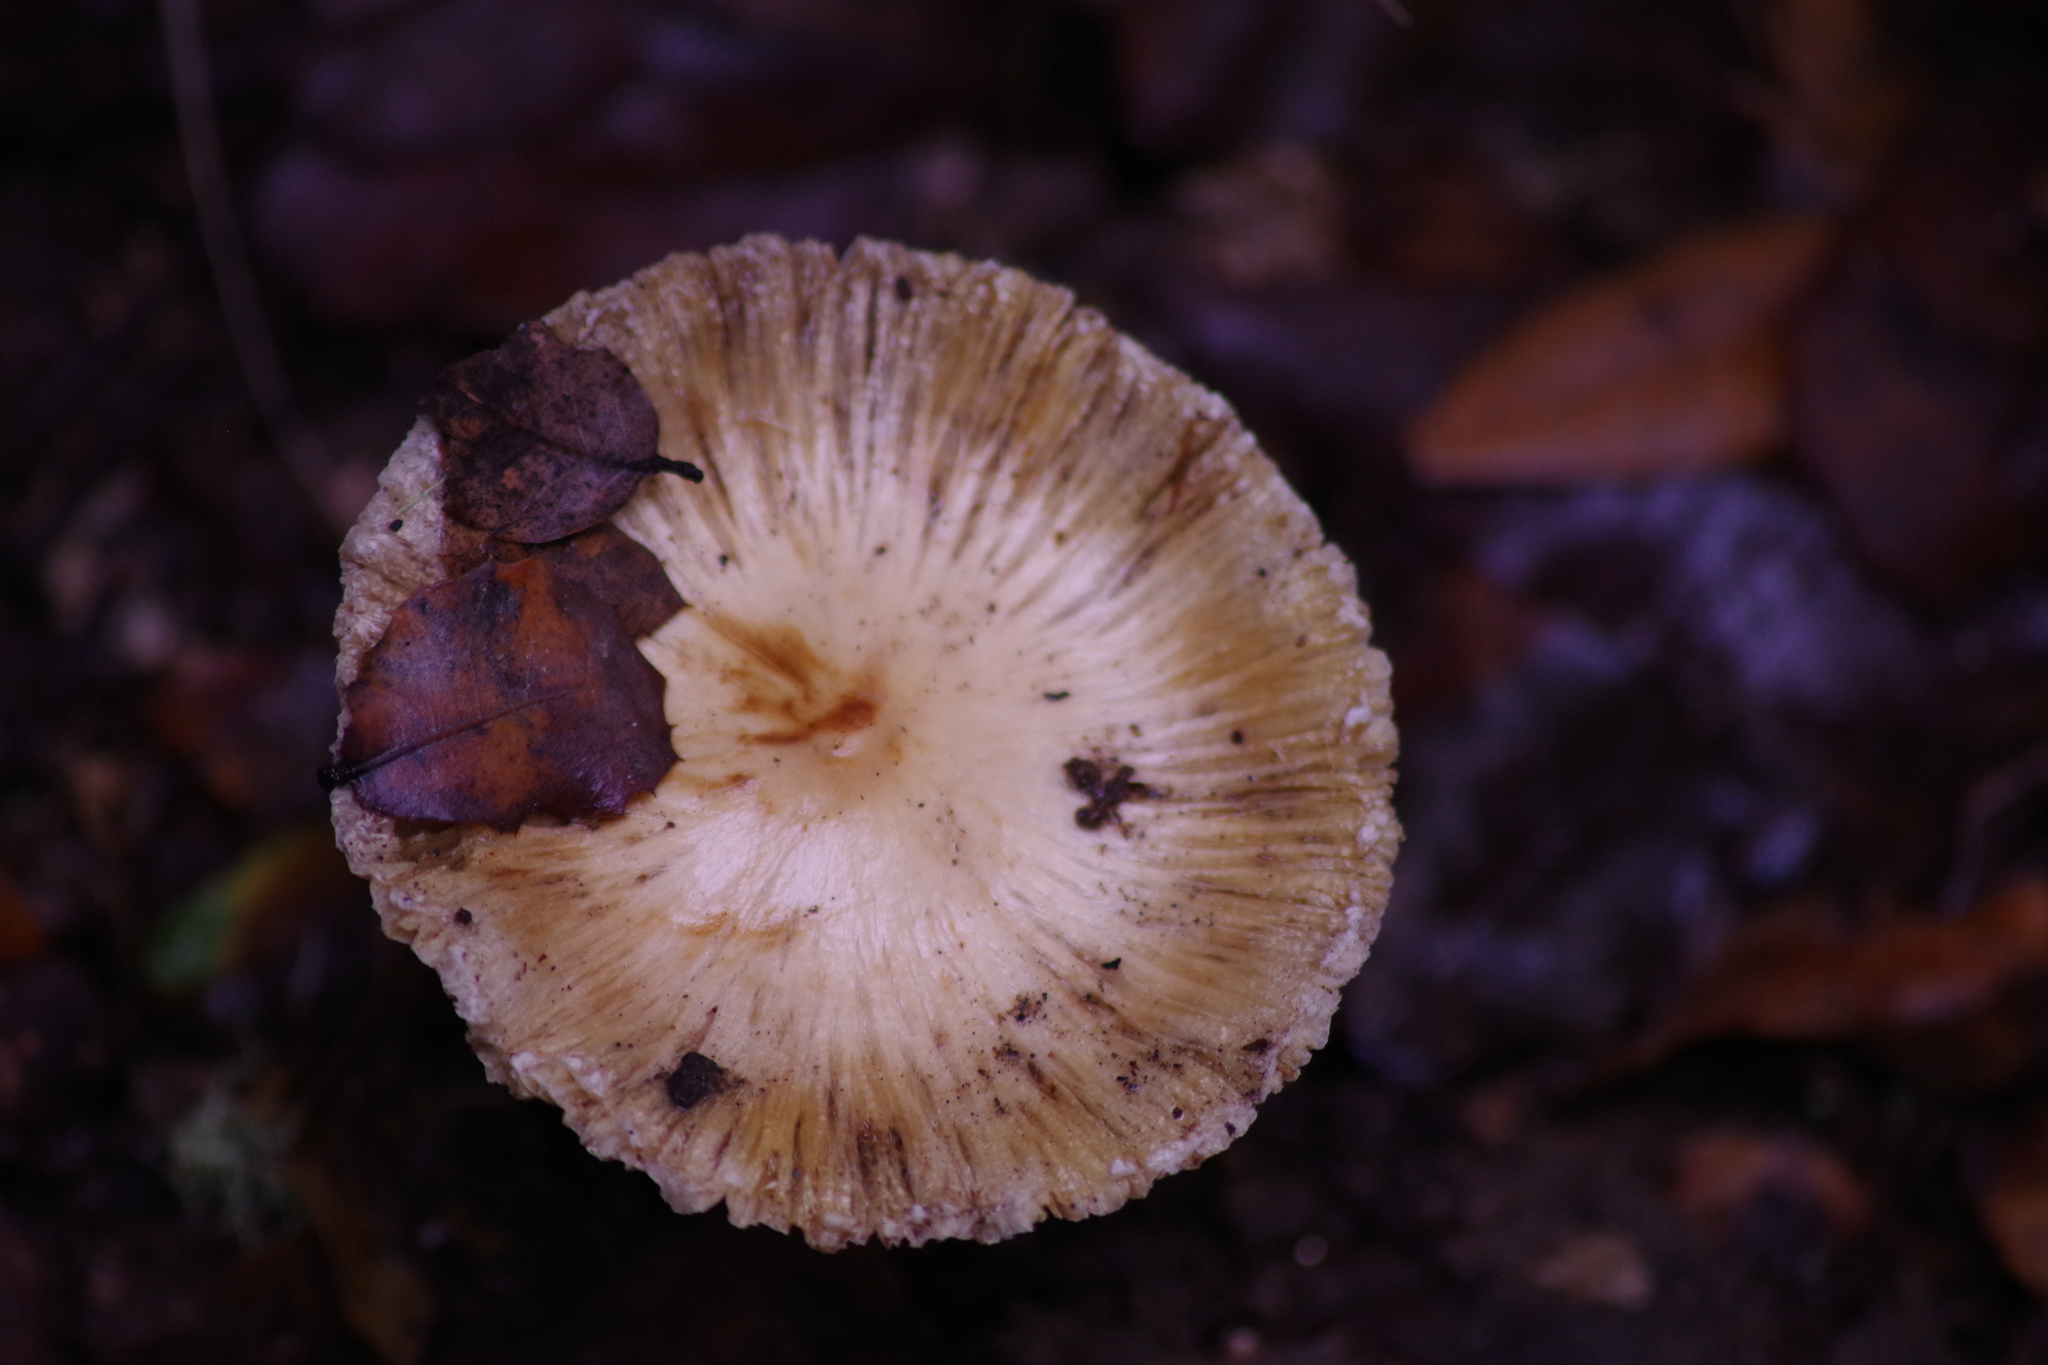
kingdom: Fungi
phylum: Basidiomycota
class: Agaricomycetes
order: Agaricales
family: Inocybaceae
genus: Pseudosperma
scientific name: Pseudosperma sororium
